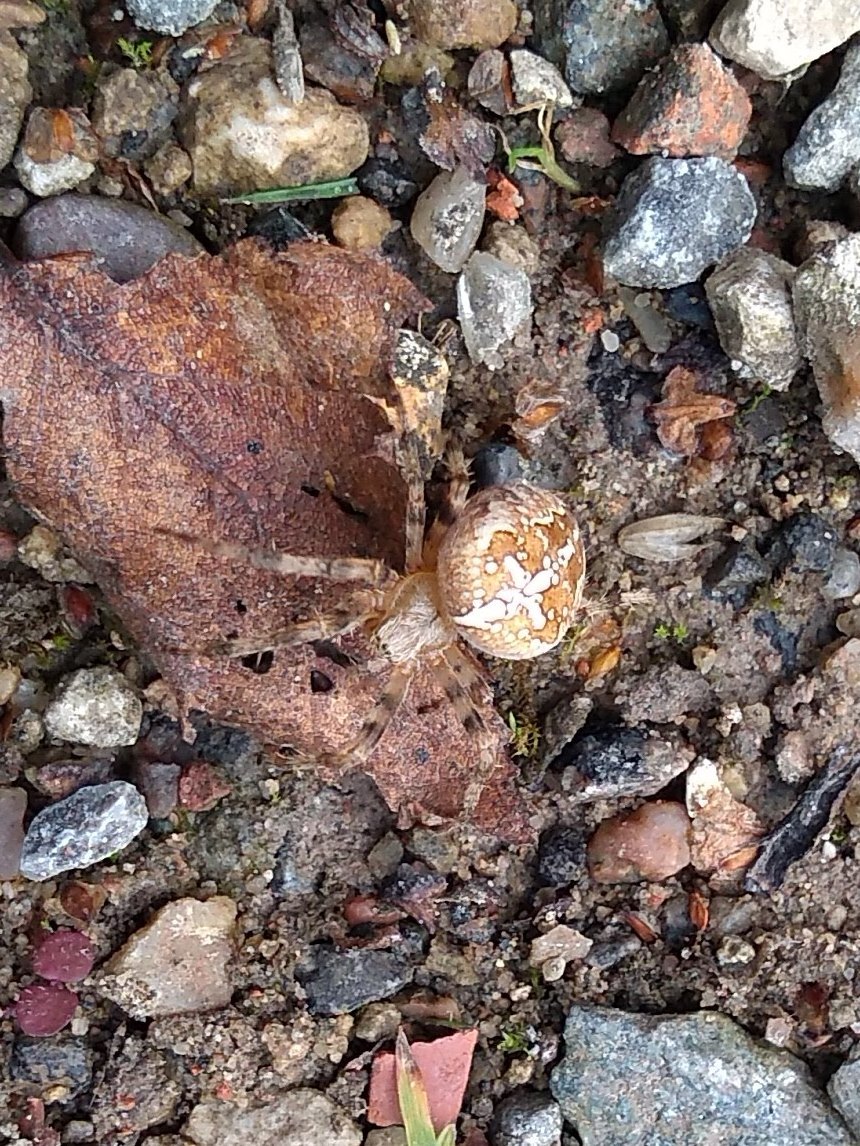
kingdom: Animalia
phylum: Arthropoda
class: Arachnida
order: Araneae
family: Araneidae
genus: Araneus
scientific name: Araneus diadematus
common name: Cross orbweaver
